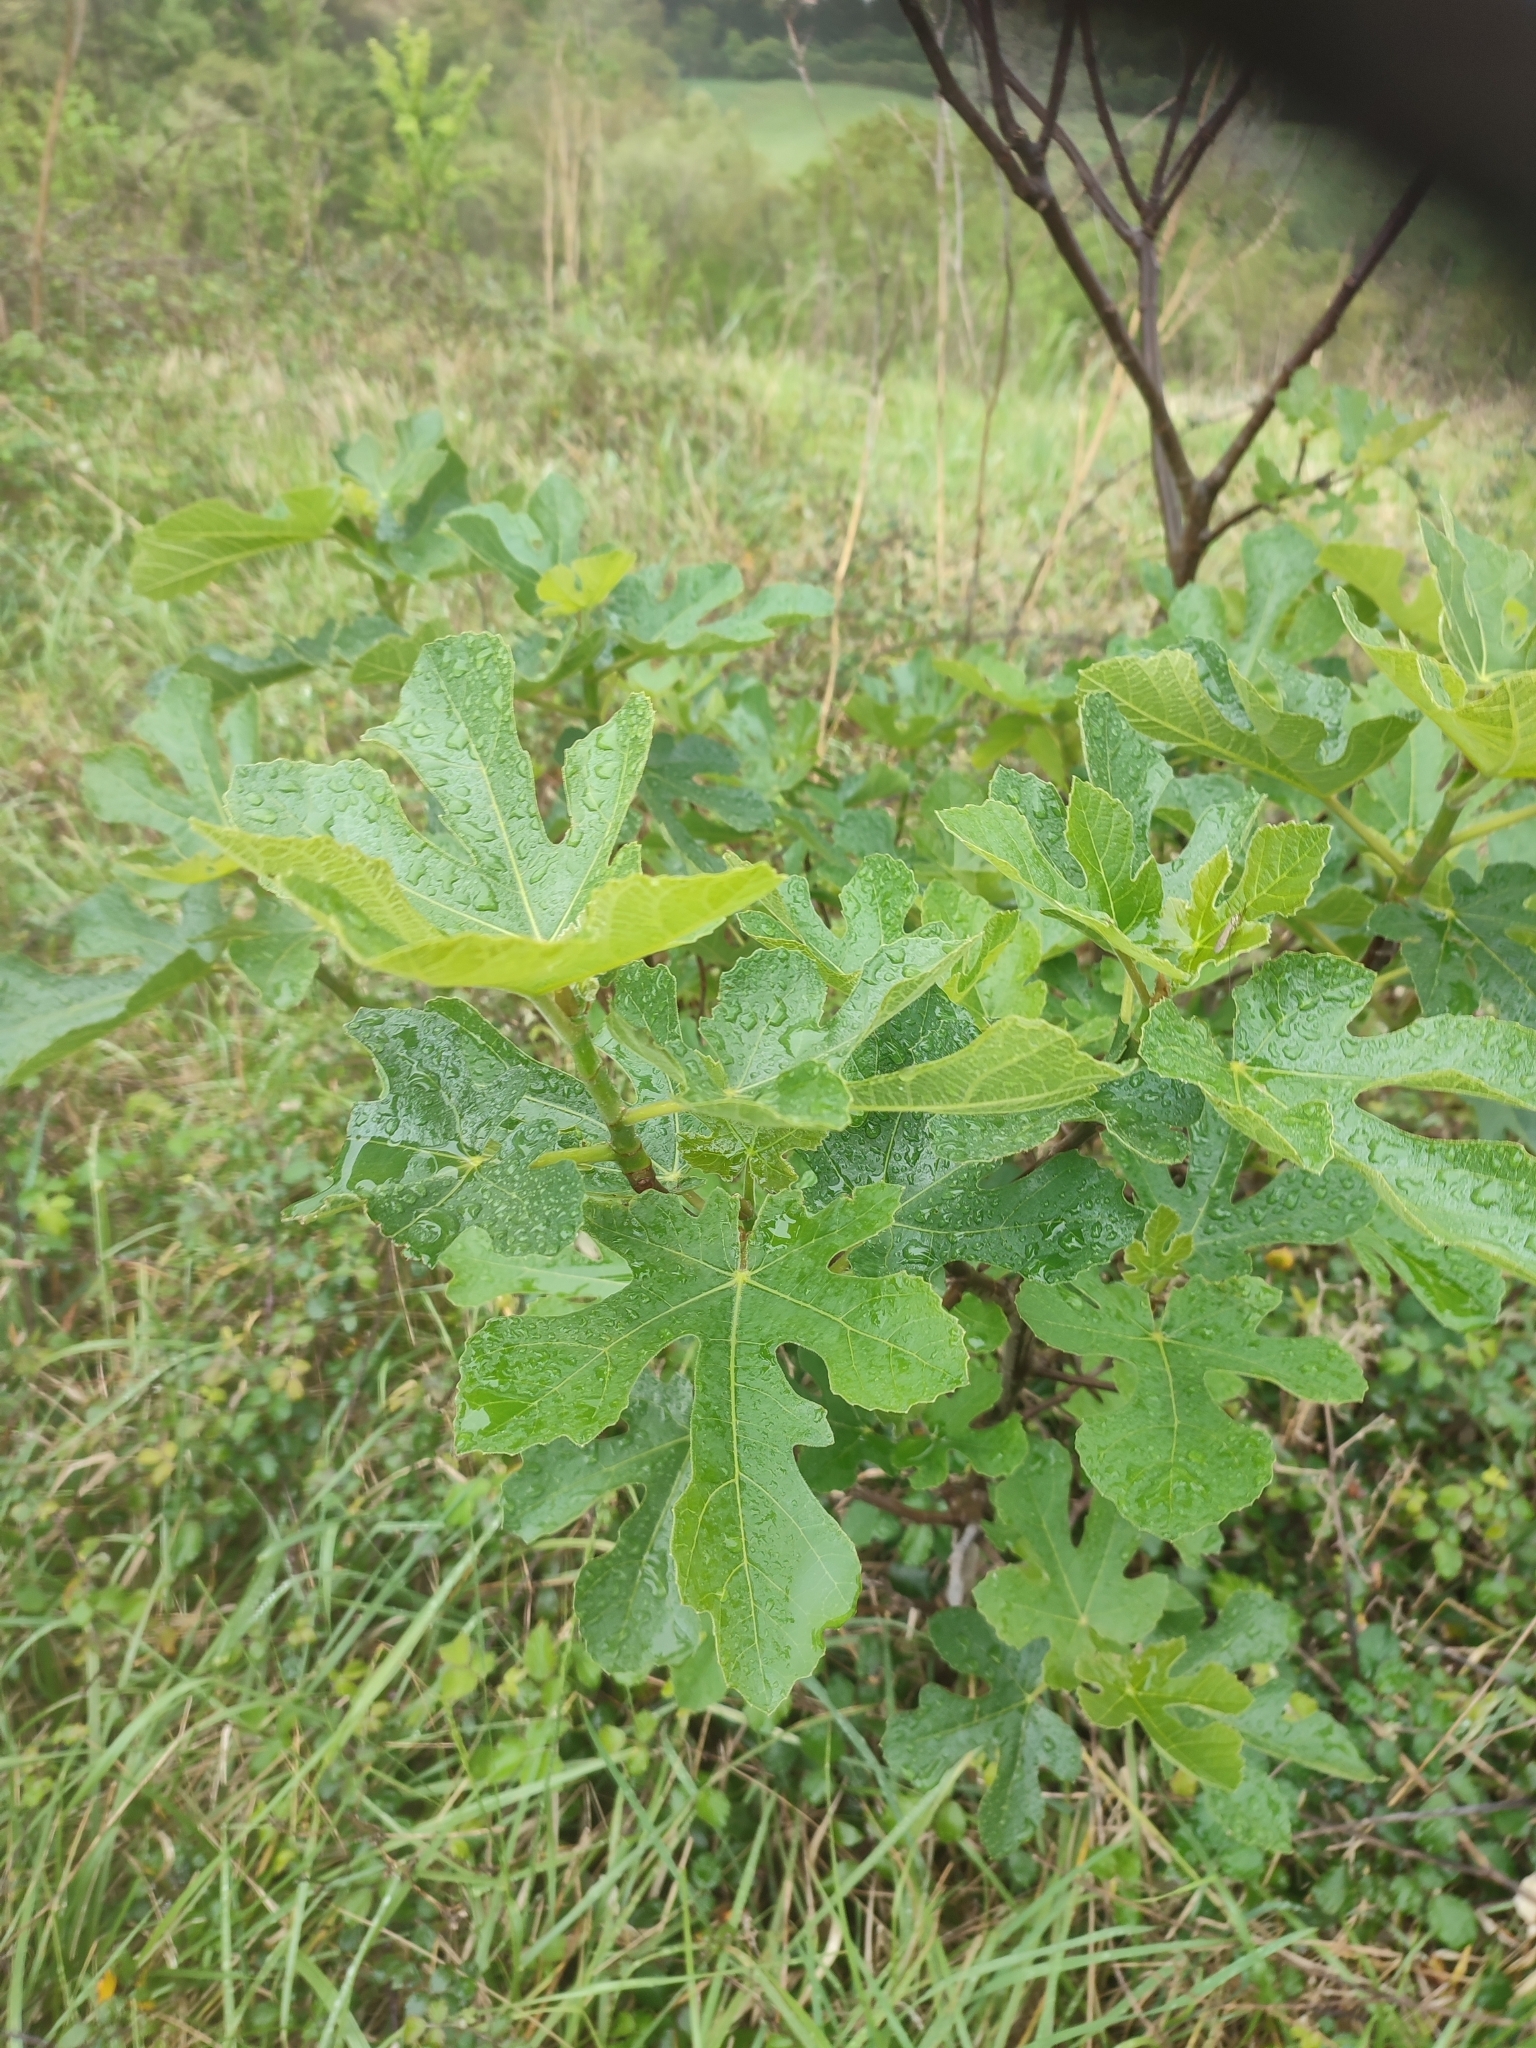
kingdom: Plantae
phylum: Tracheophyta
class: Magnoliopsida
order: Rosales
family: Moraceae
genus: Ficus
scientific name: Ficus carica
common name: Fig
